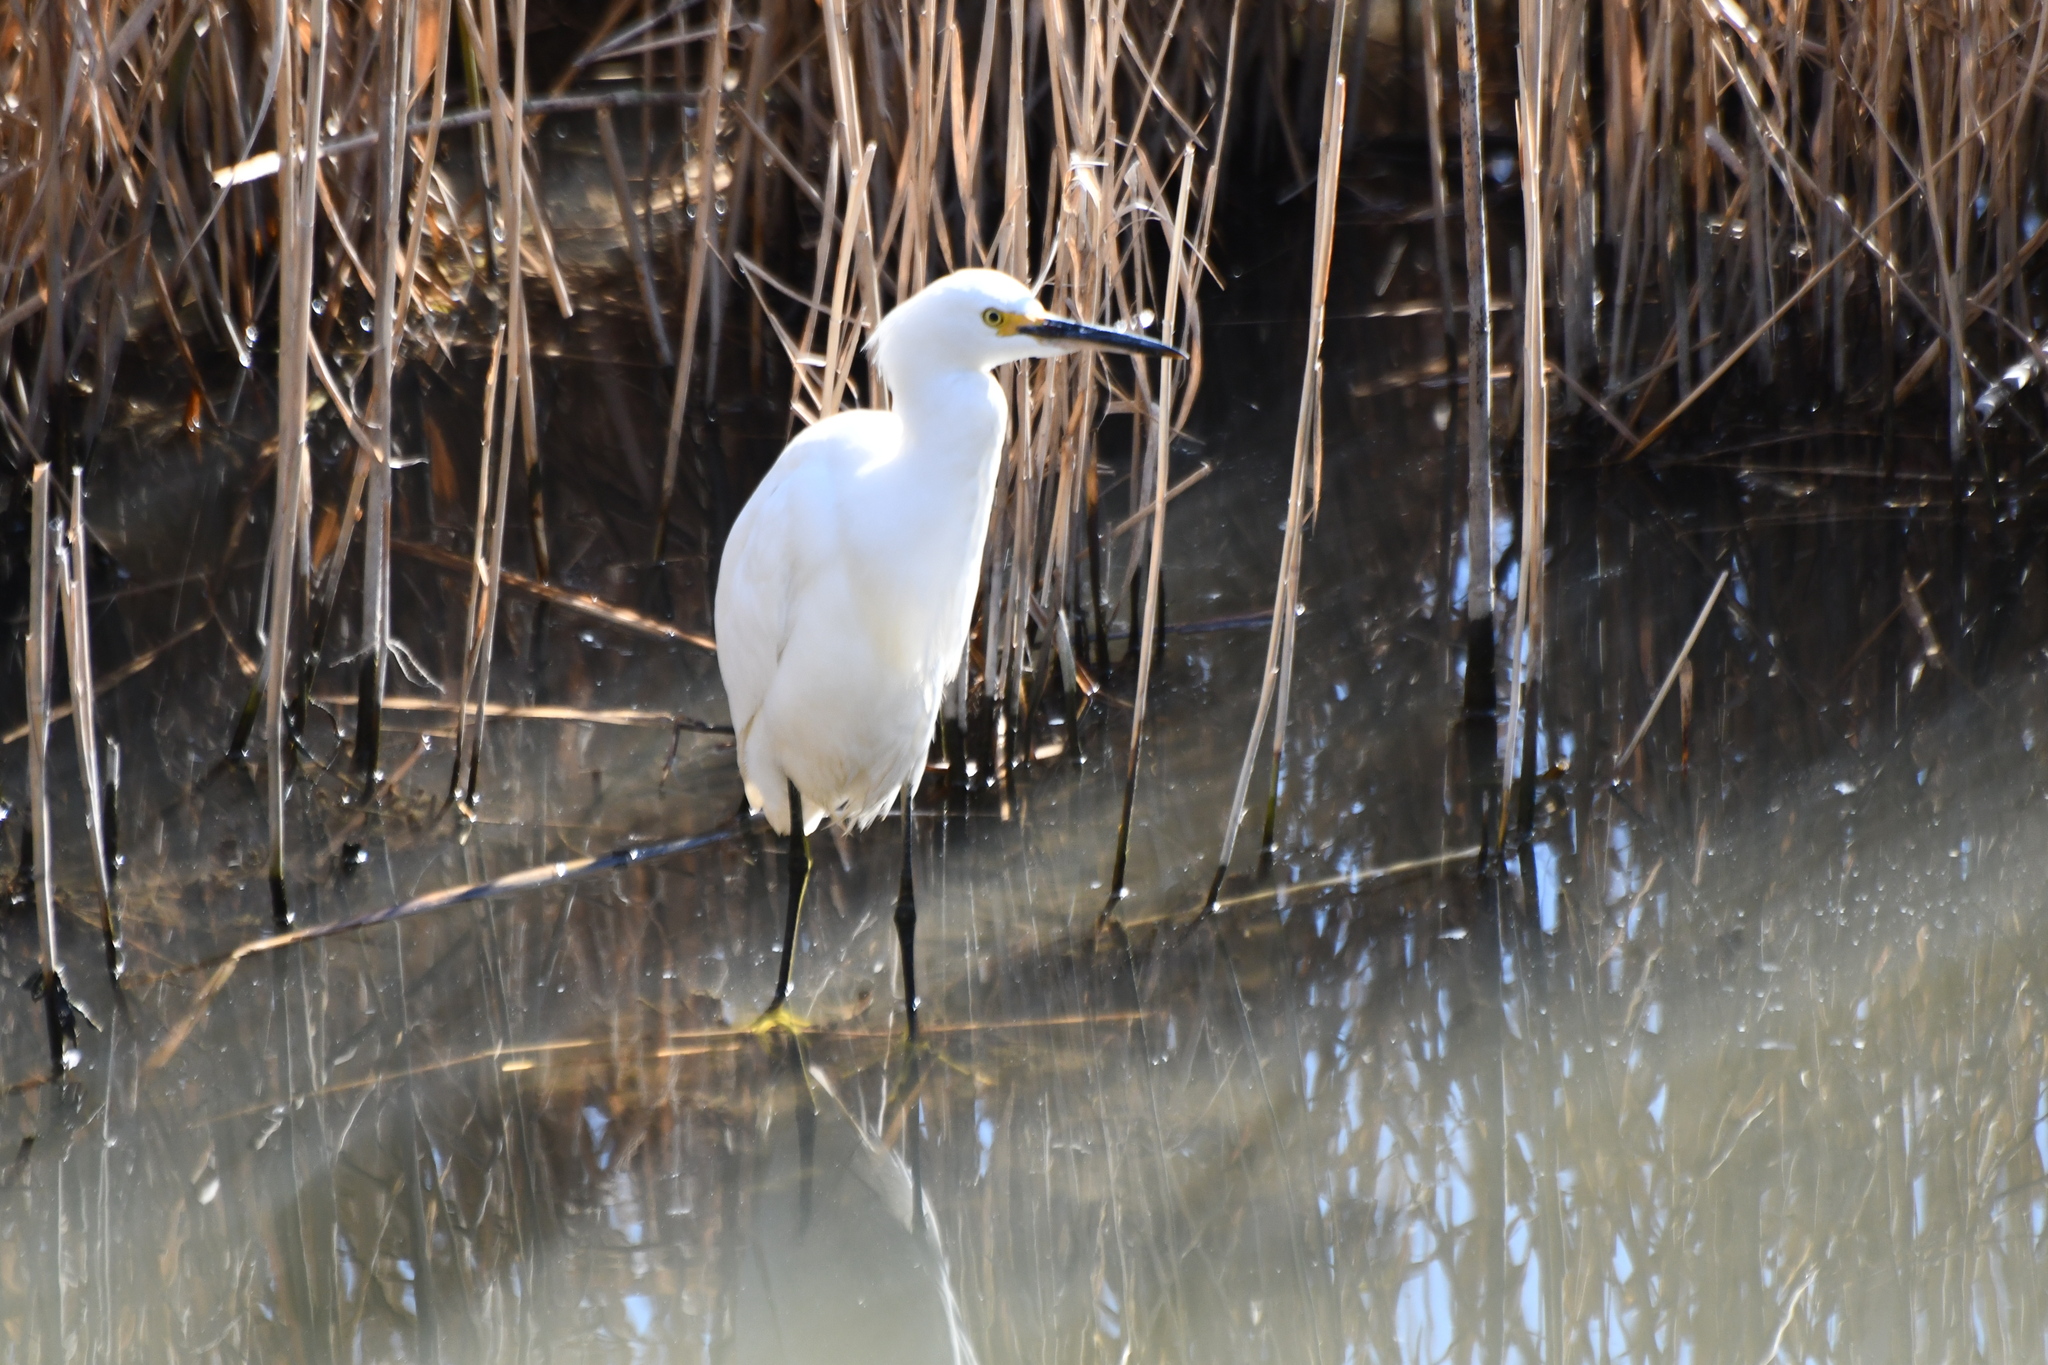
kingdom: Animalia
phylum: Chordata
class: Aves
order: Pelecaniformes
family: Ardeidae
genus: Egretta
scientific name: Egretta thula
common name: Snowy egret
